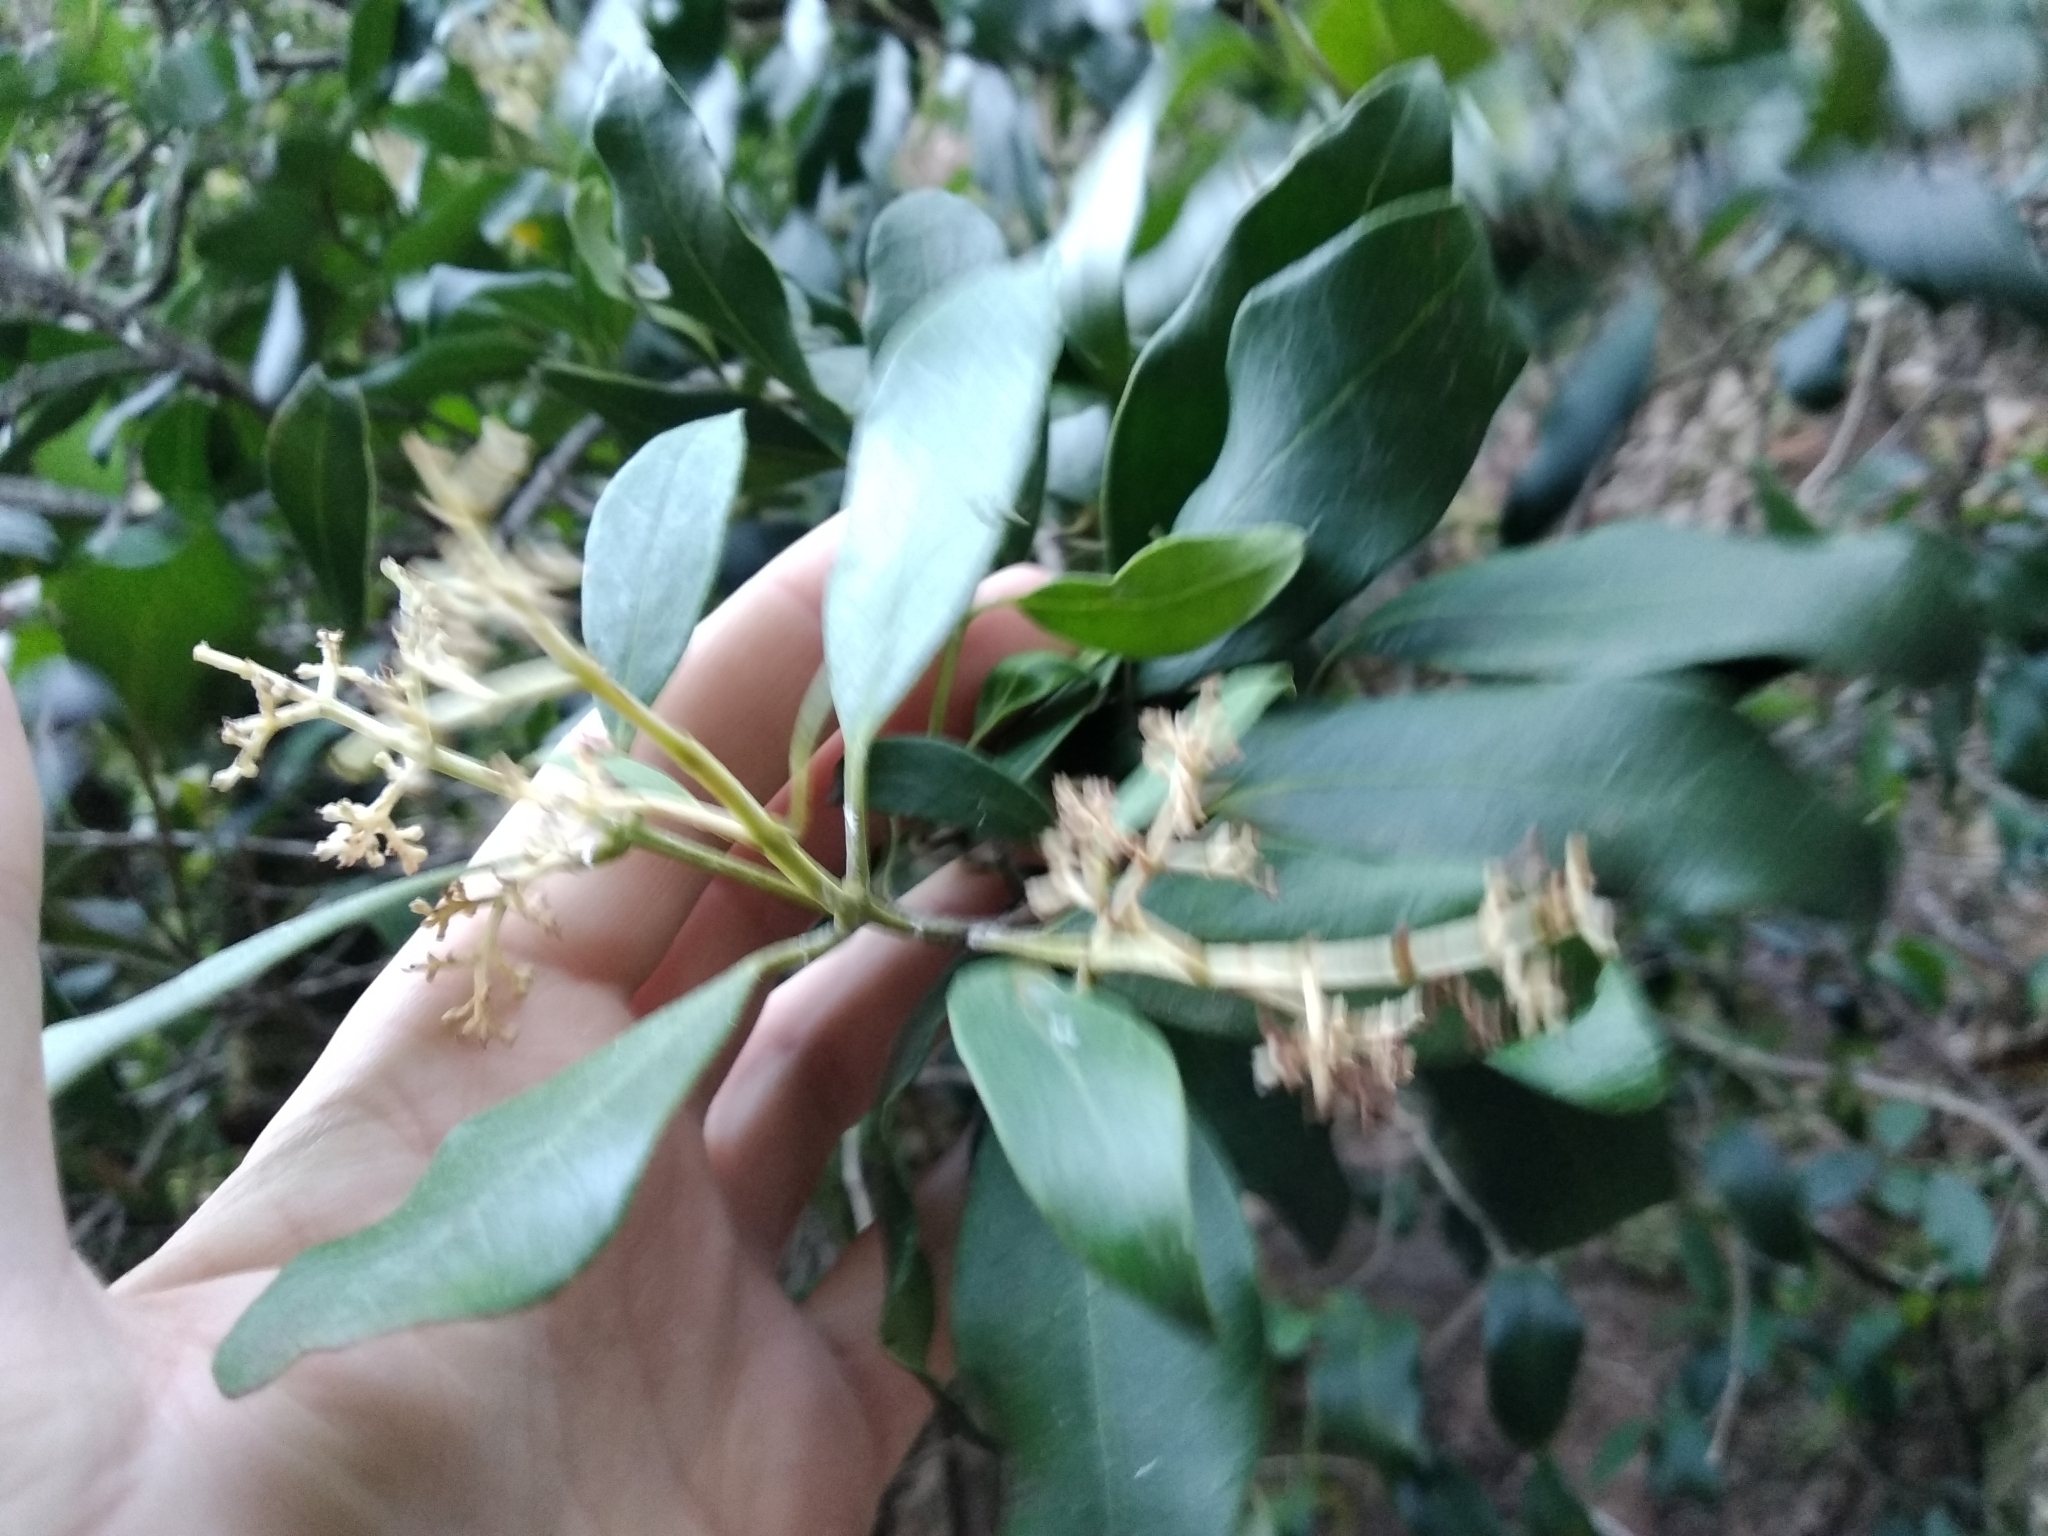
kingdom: Plantae
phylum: Tracheophyta
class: Magnoliopsida
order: Lamiales
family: Oleaceae
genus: Olea
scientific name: Olea capensis
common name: Black ironwood
